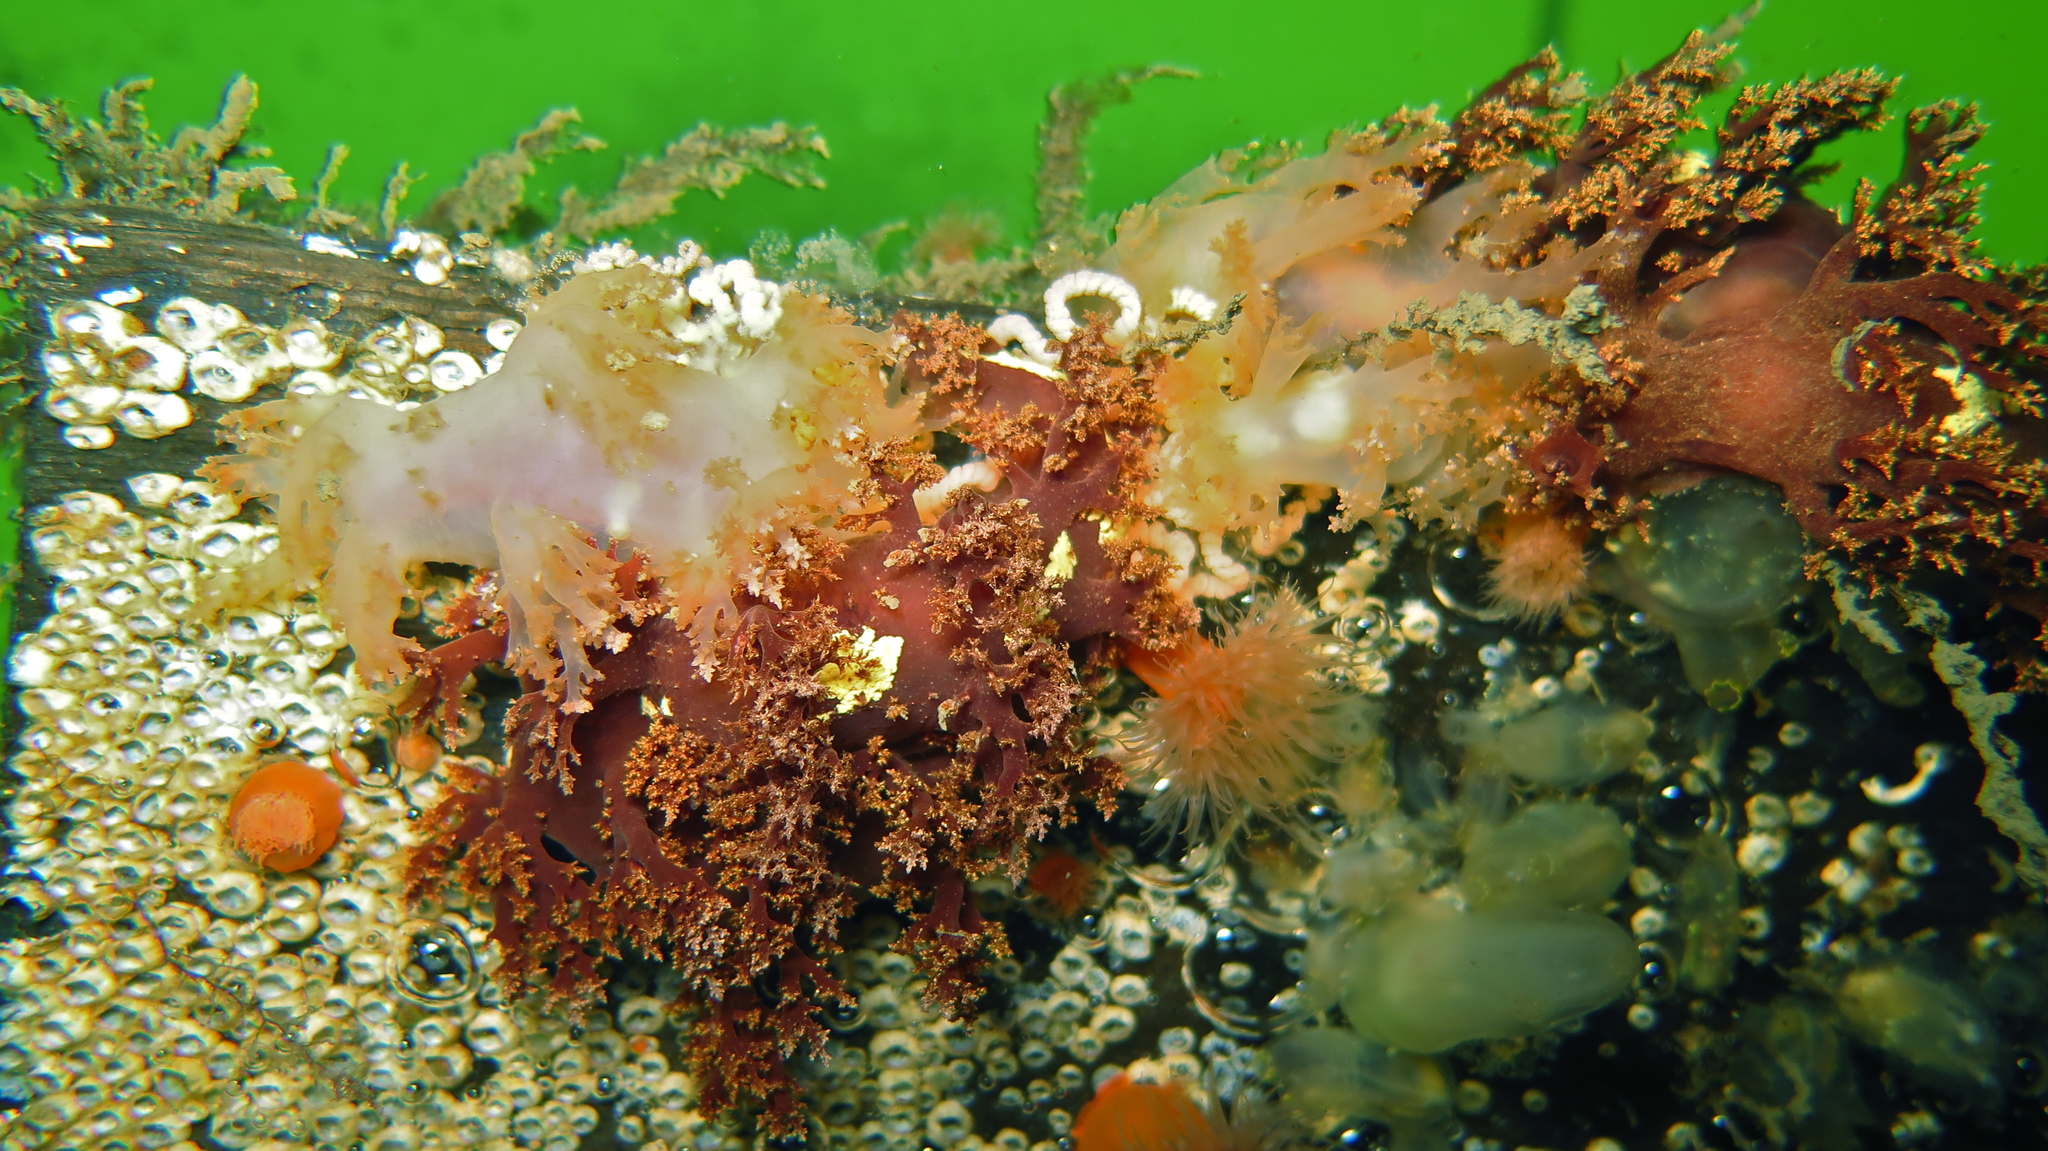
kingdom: Animalia
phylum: Mollusca
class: Gastropoda
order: Nudibranchia
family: Dendronotidae
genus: Dendronotus
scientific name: Dendronotus frondosus
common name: Bushy-backed nudibranch
